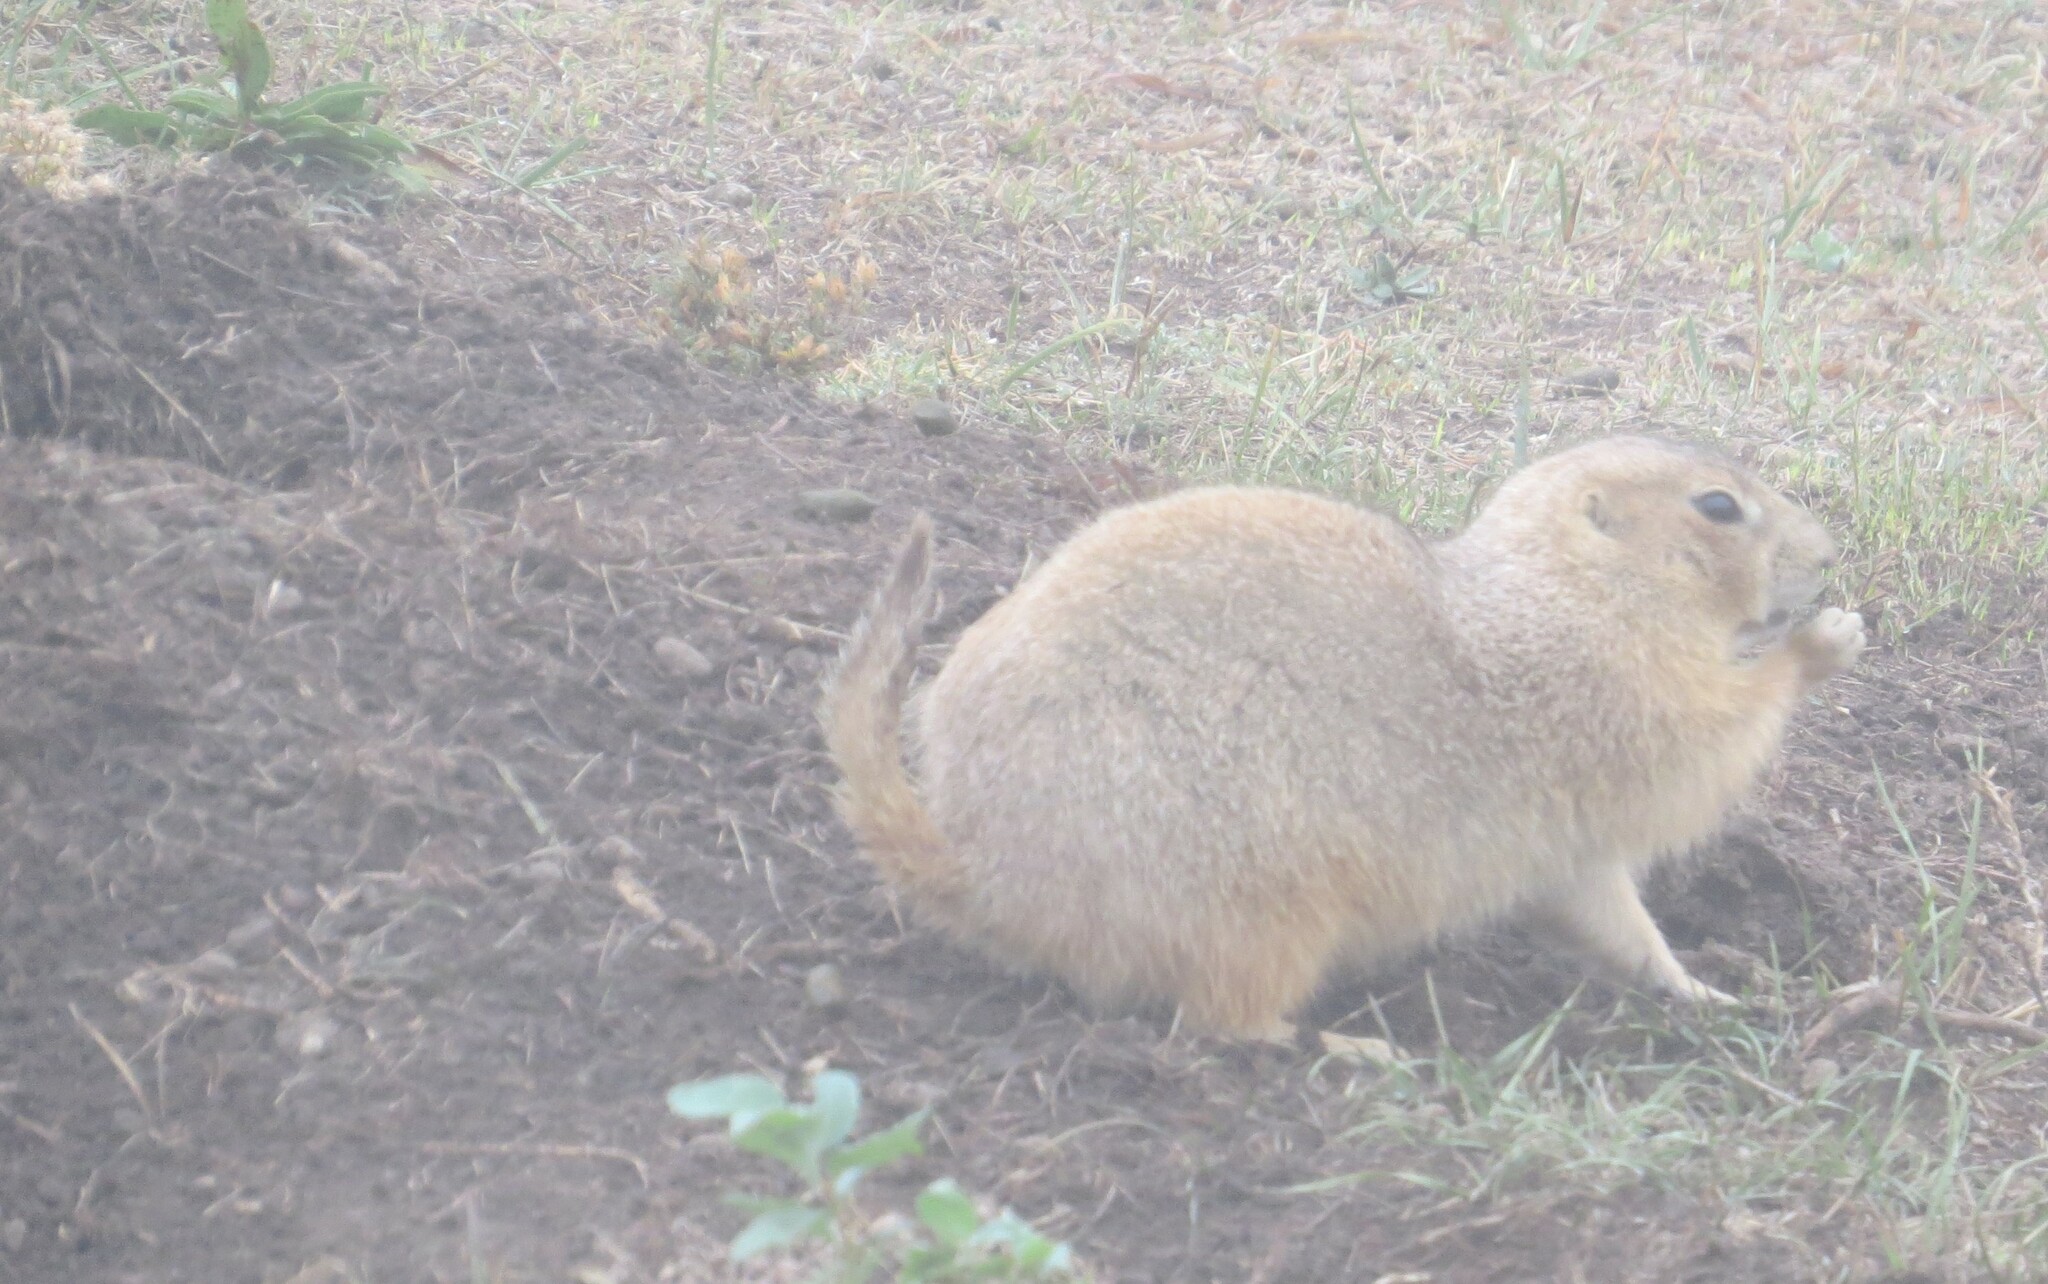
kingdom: Animalia
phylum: Chordata
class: Mammalia
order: Rodentia
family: Sciuridae
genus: Cynomys
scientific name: Cynomys ludovicianus
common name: Black-tailed prairie dog
